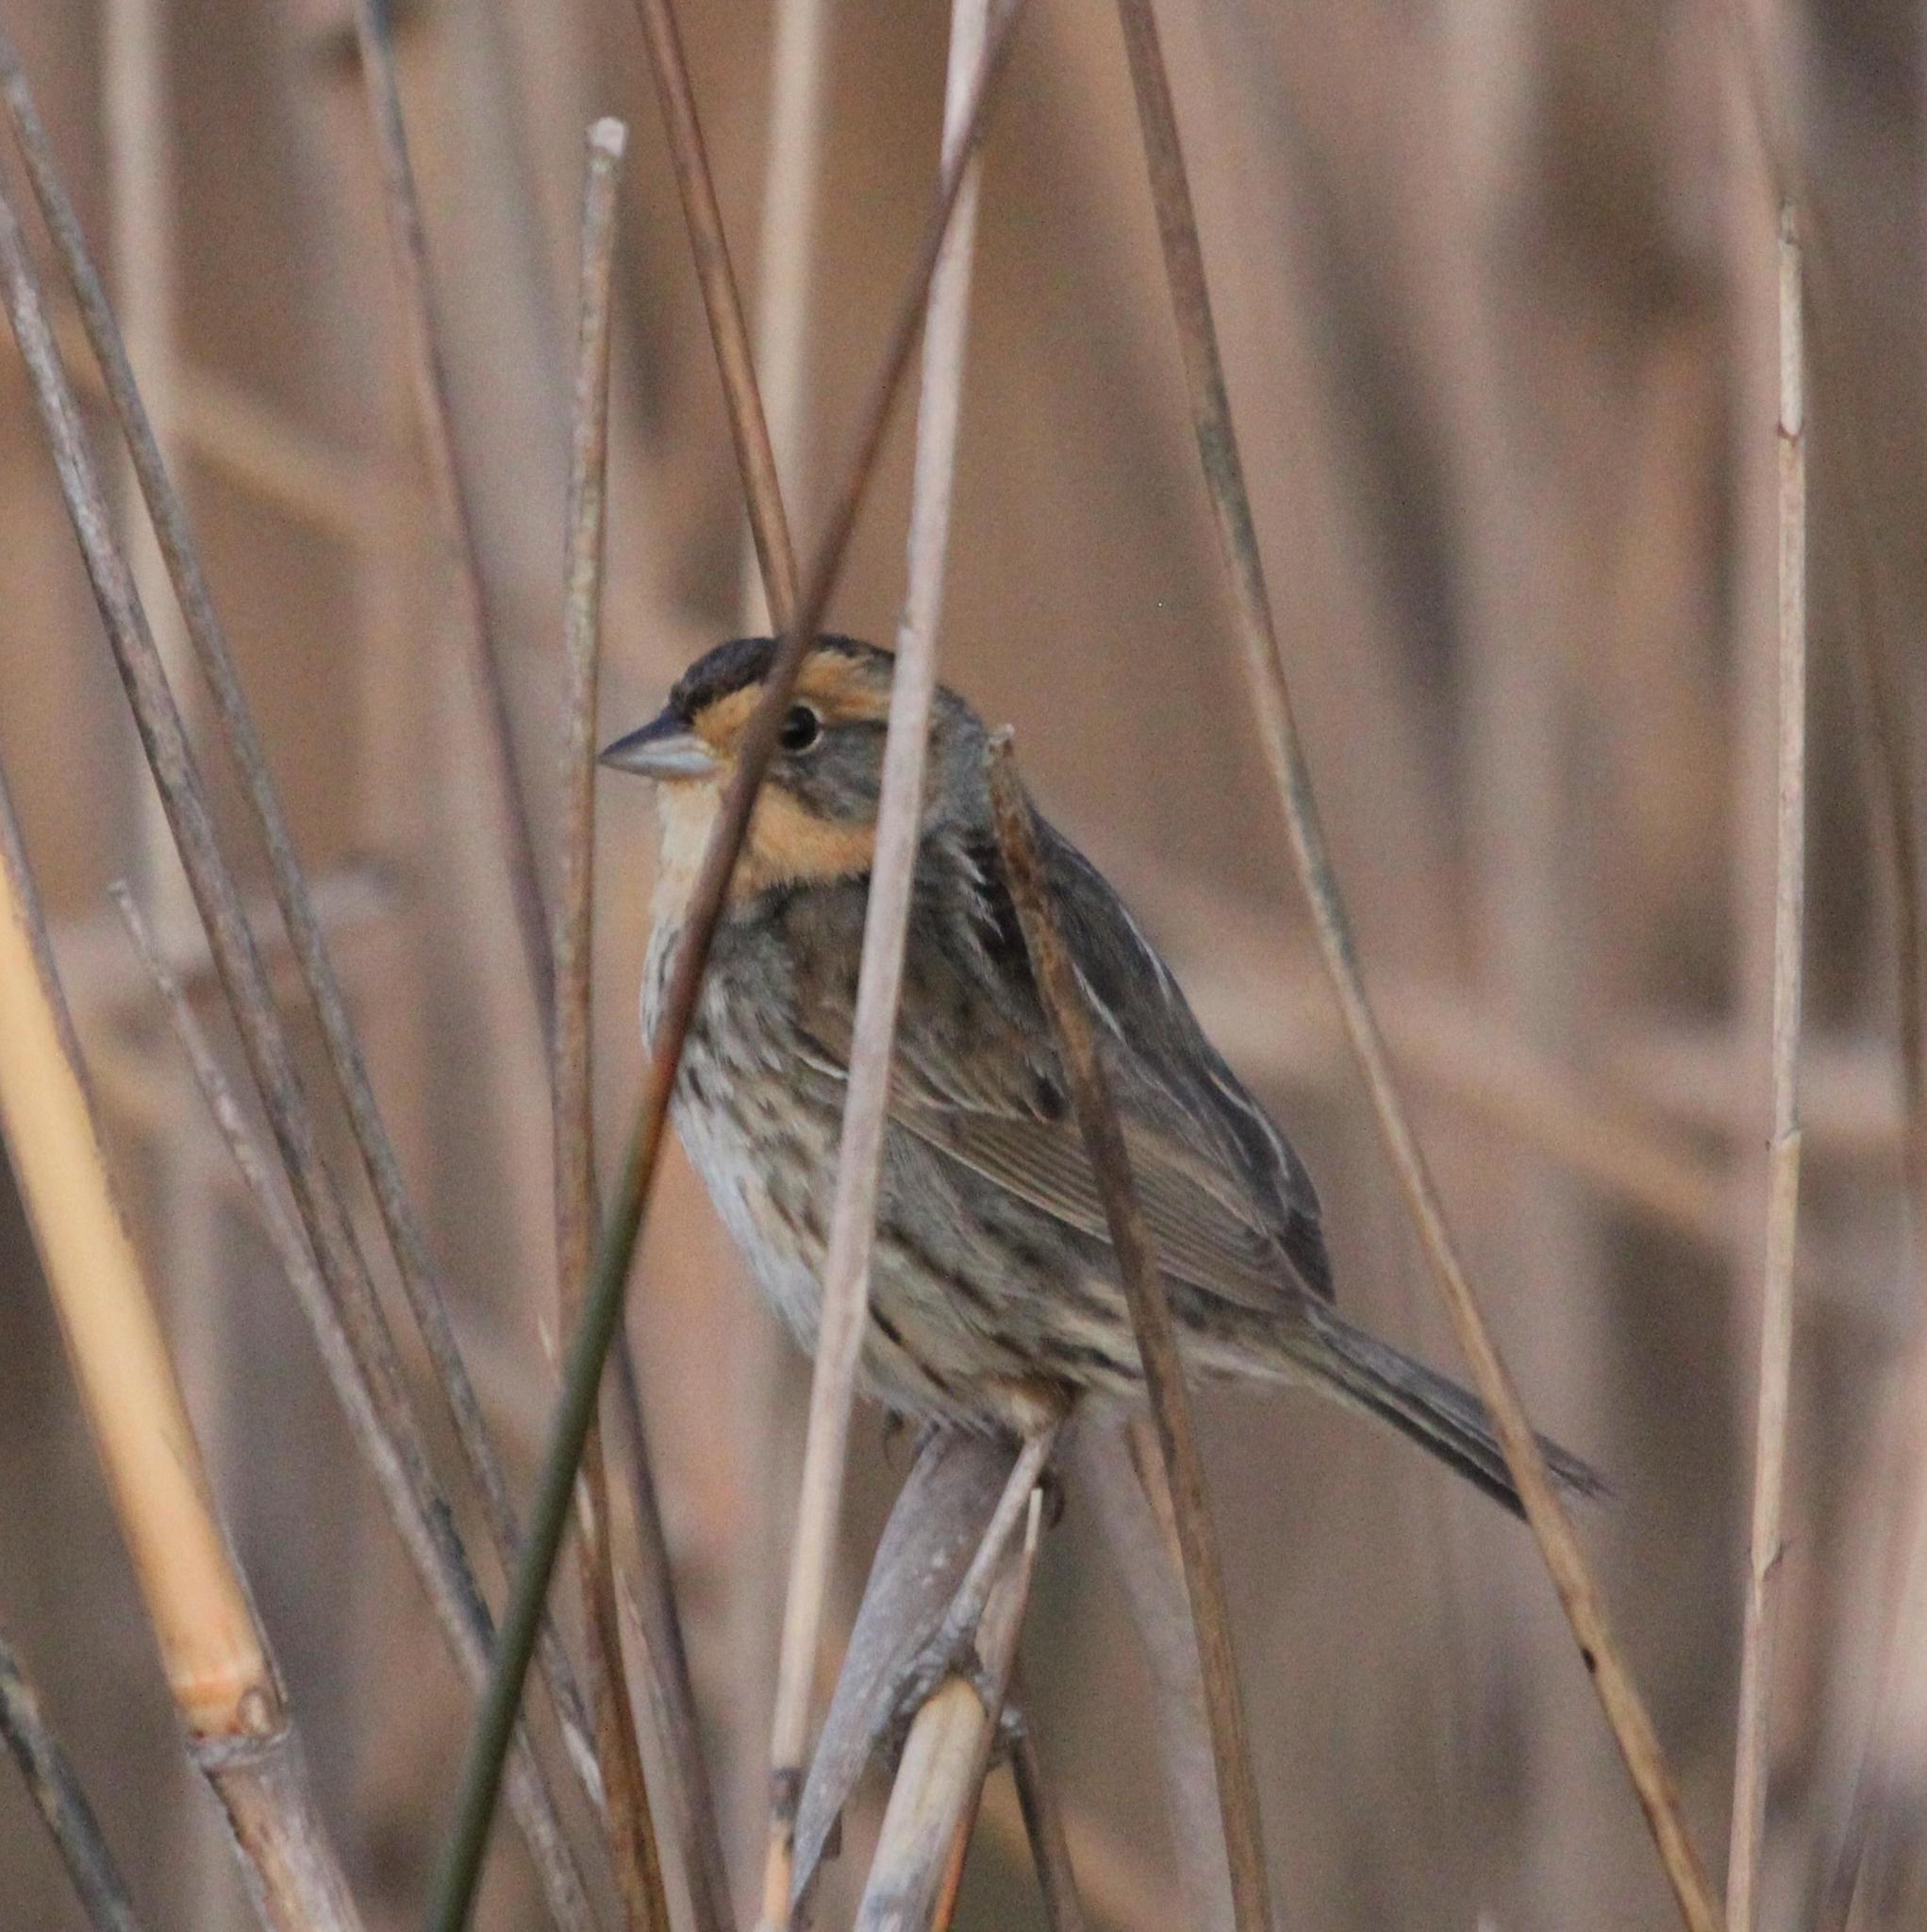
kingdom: Animalia
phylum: Chordata
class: Aves
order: Passeriformes
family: Passerellidae
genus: Ammospiza
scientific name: Ammospiza nelsoni
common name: Nelson's sparrow
